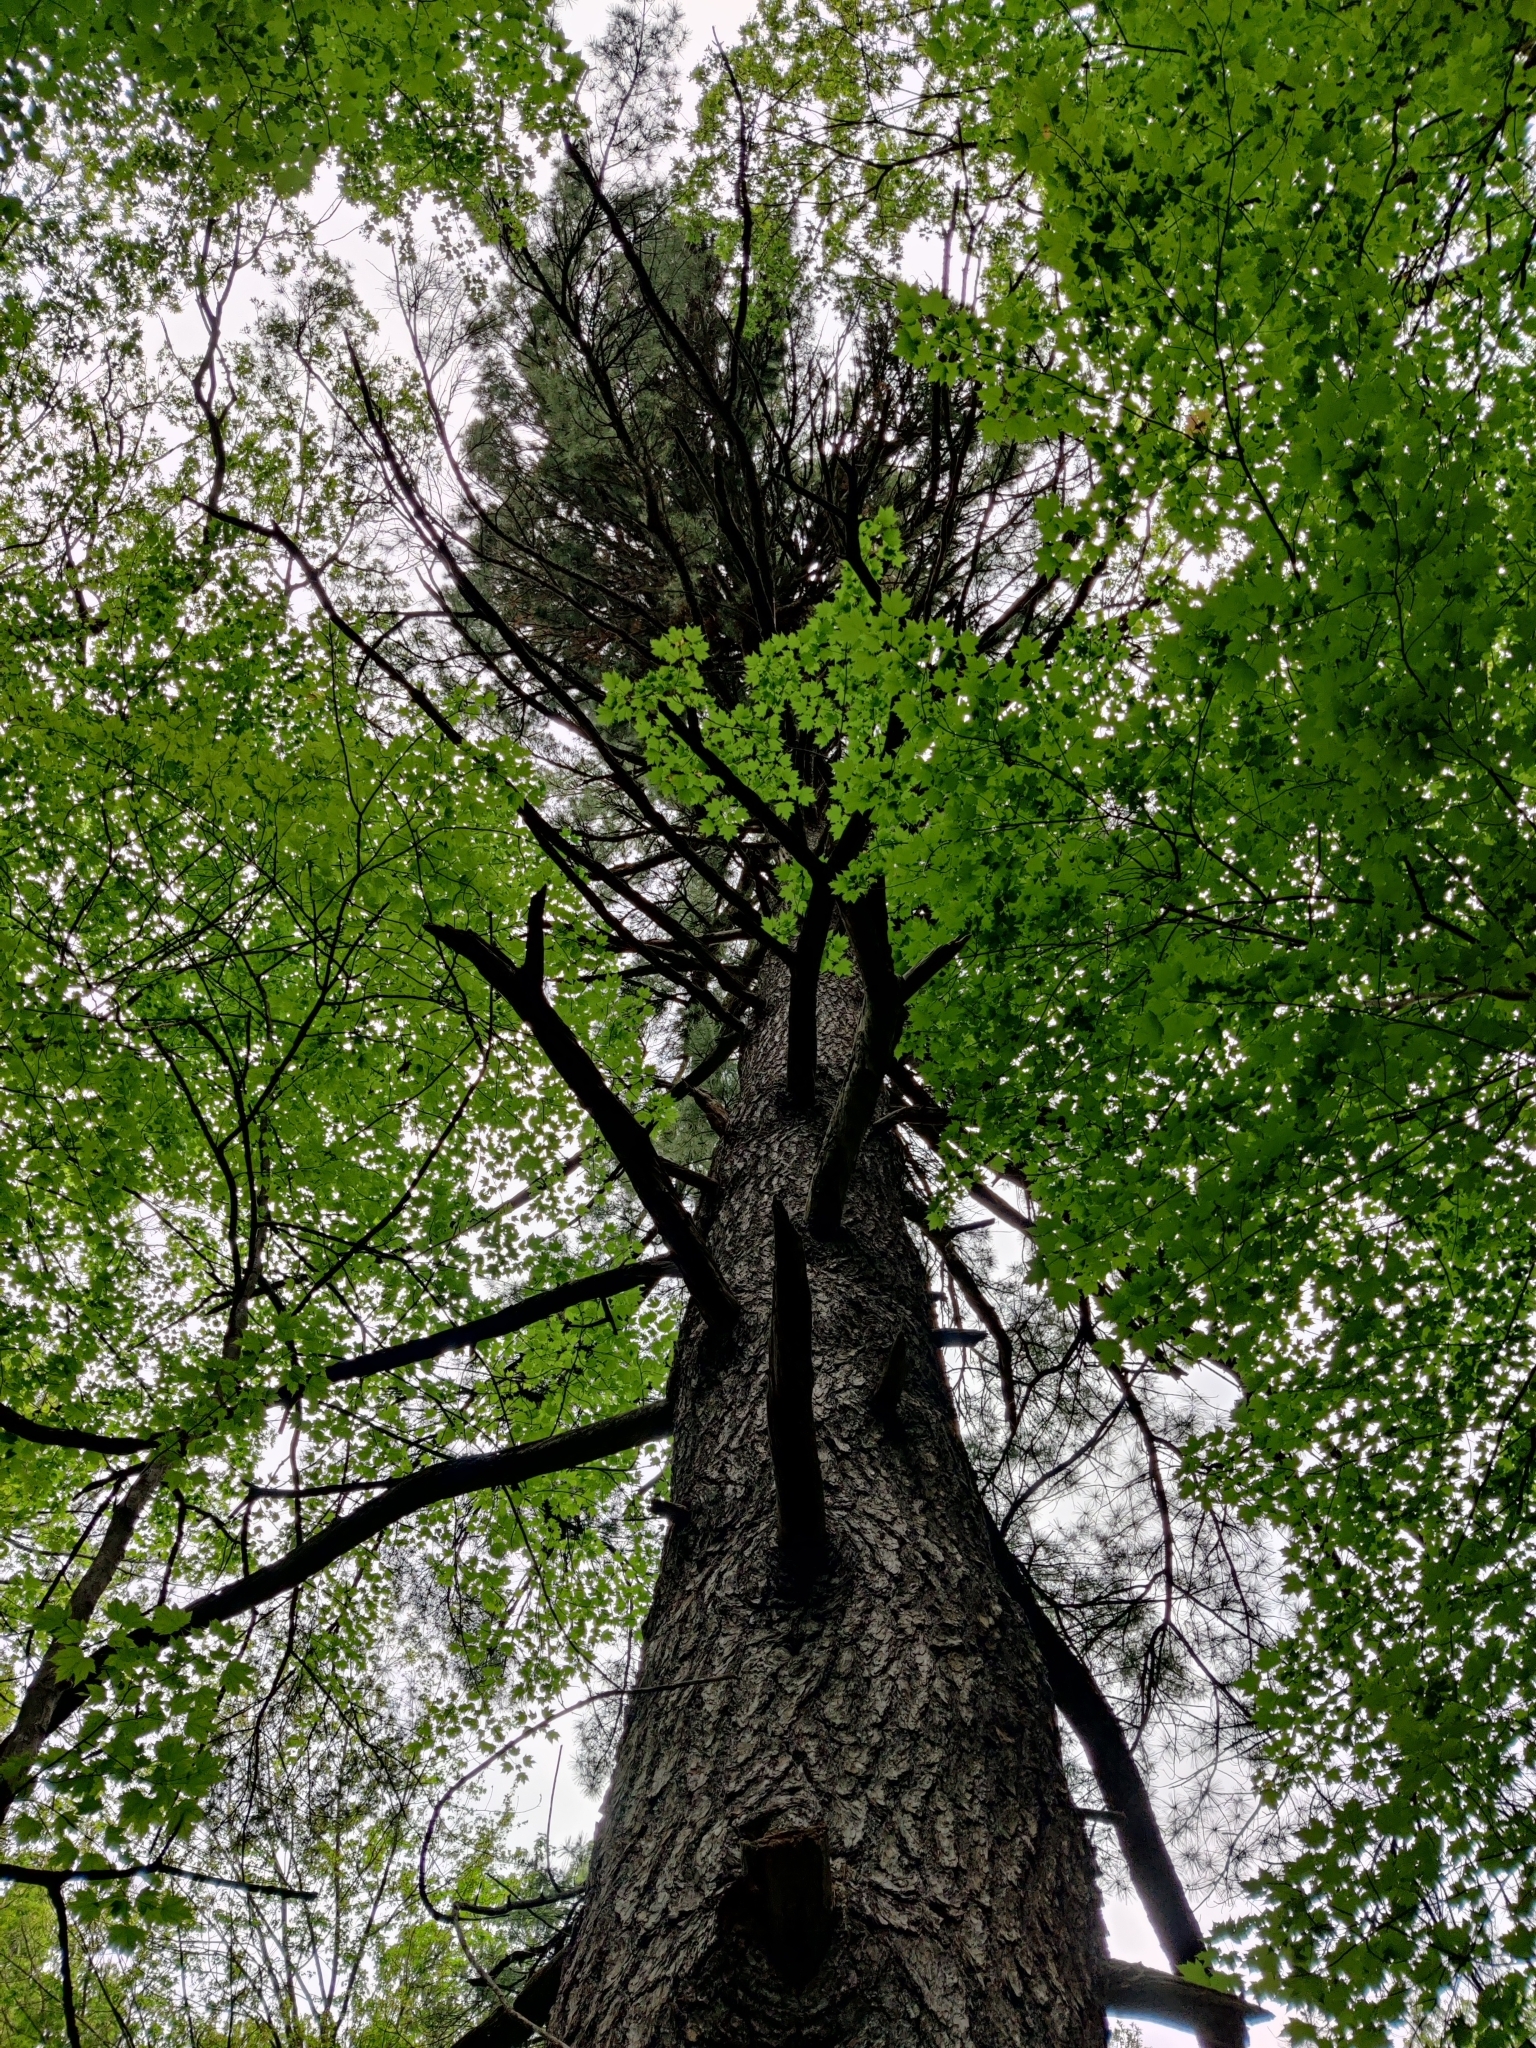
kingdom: Plantae
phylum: Tracheophyta
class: Pinopsida
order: Pinales
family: Pinaceae
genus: Pinus
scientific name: Pinus strobus
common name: Weymouth pine
